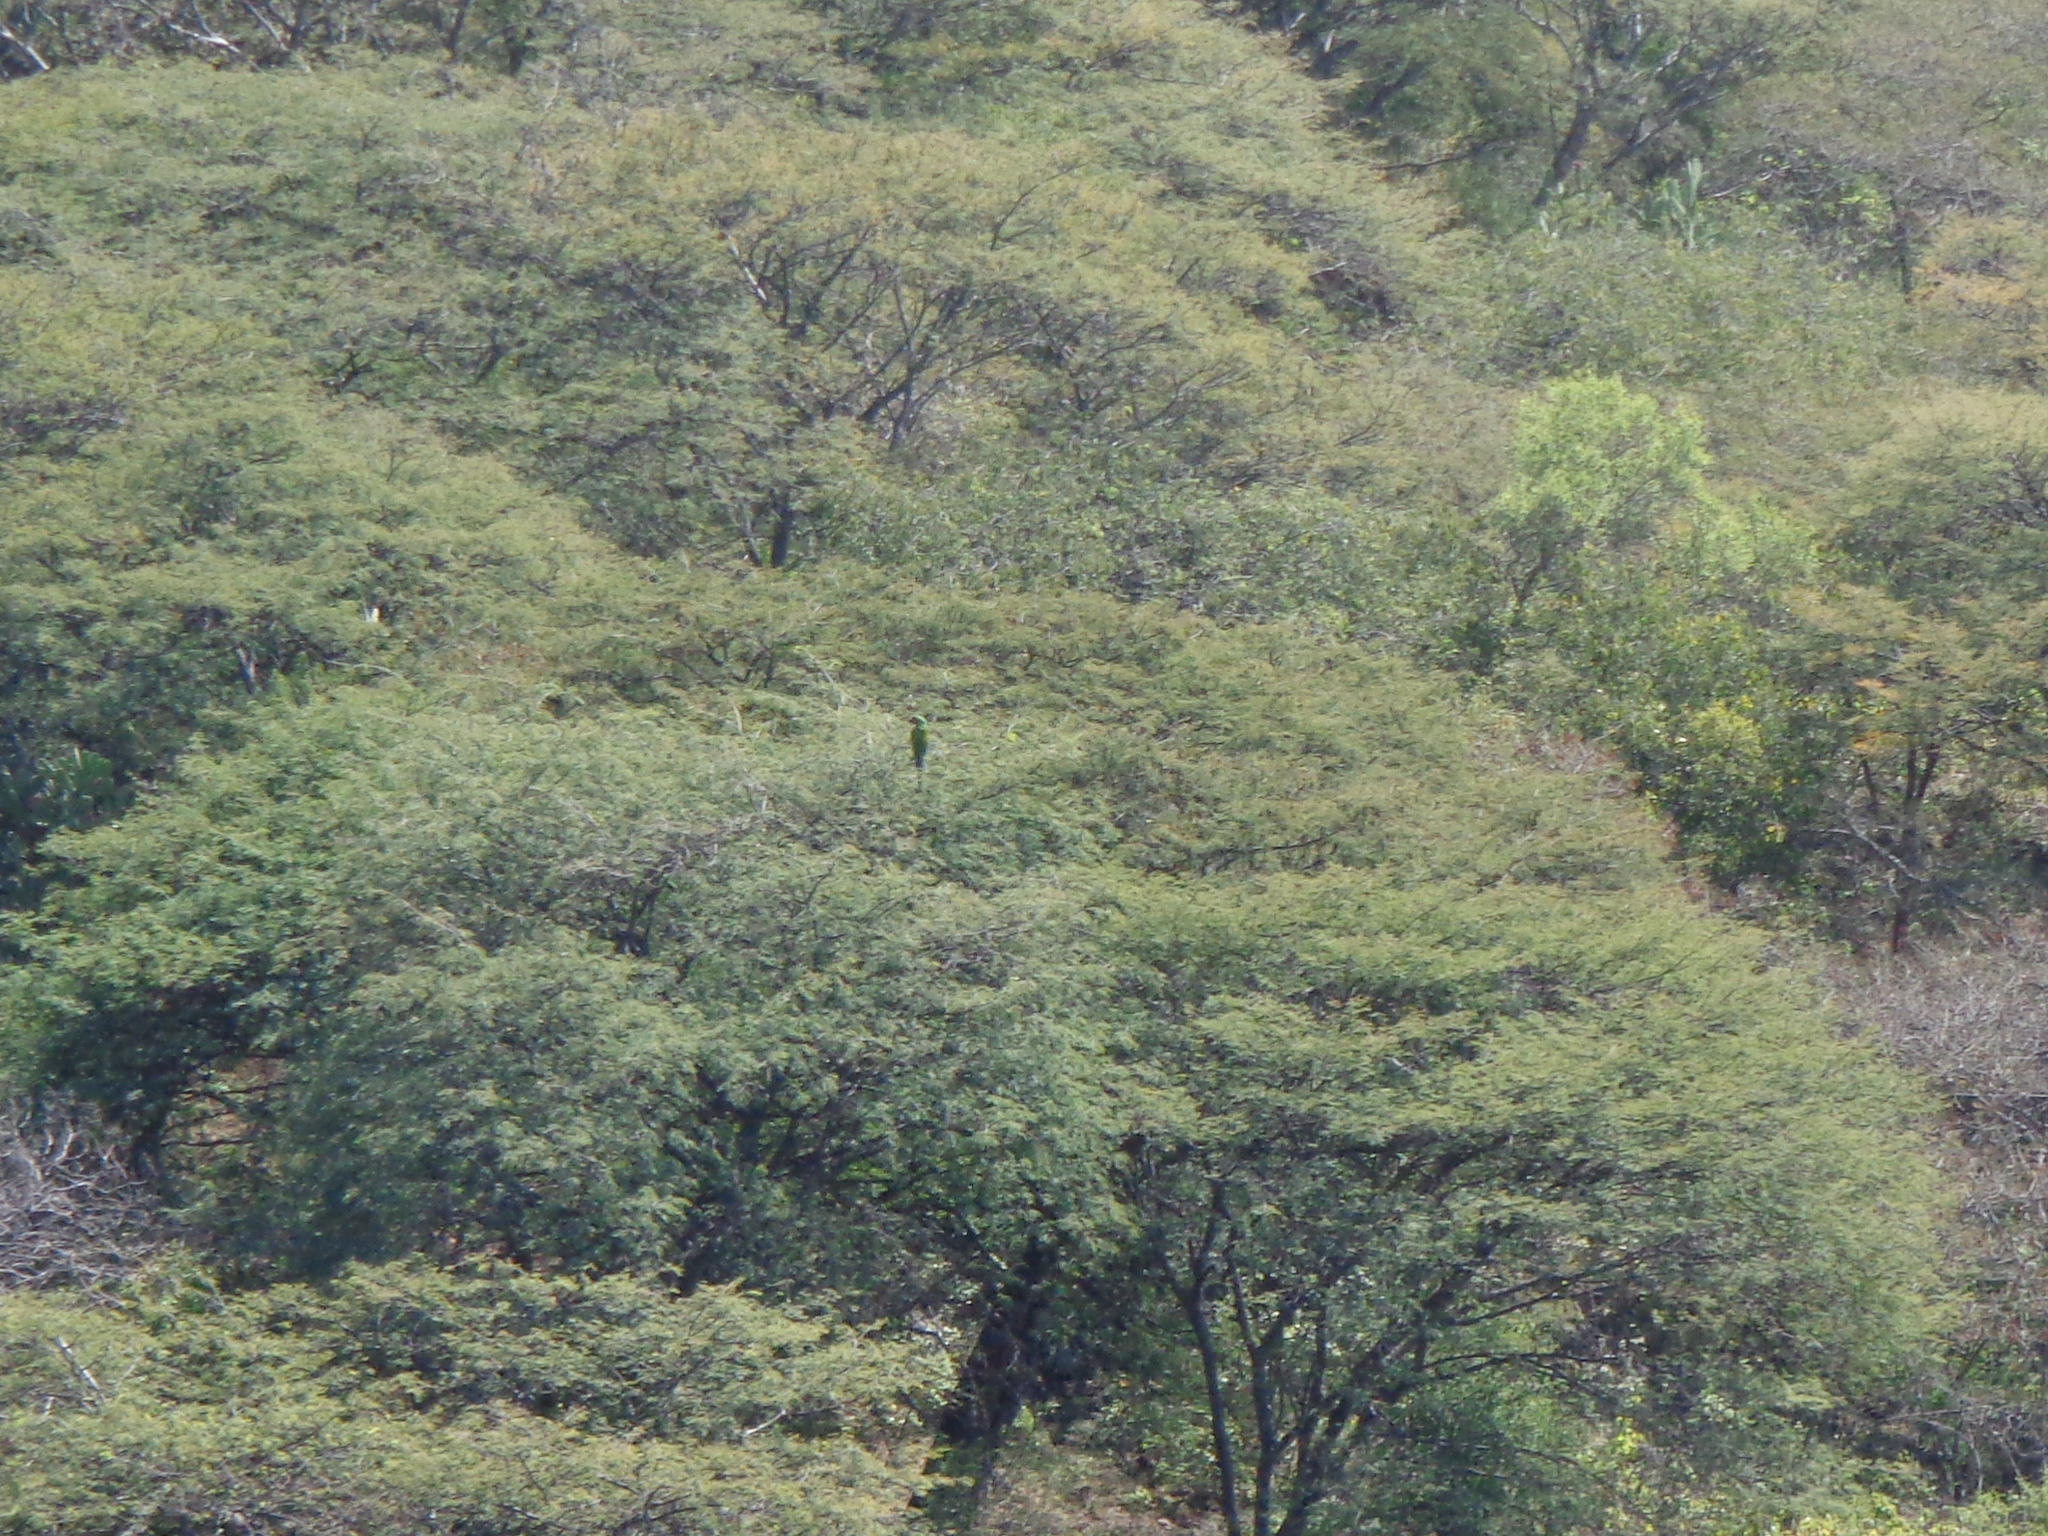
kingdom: Animalia
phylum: Chordata
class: Aves
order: Psittaciformes
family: Psittacidae
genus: Ara
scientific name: Ara militaris
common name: Military macaw
